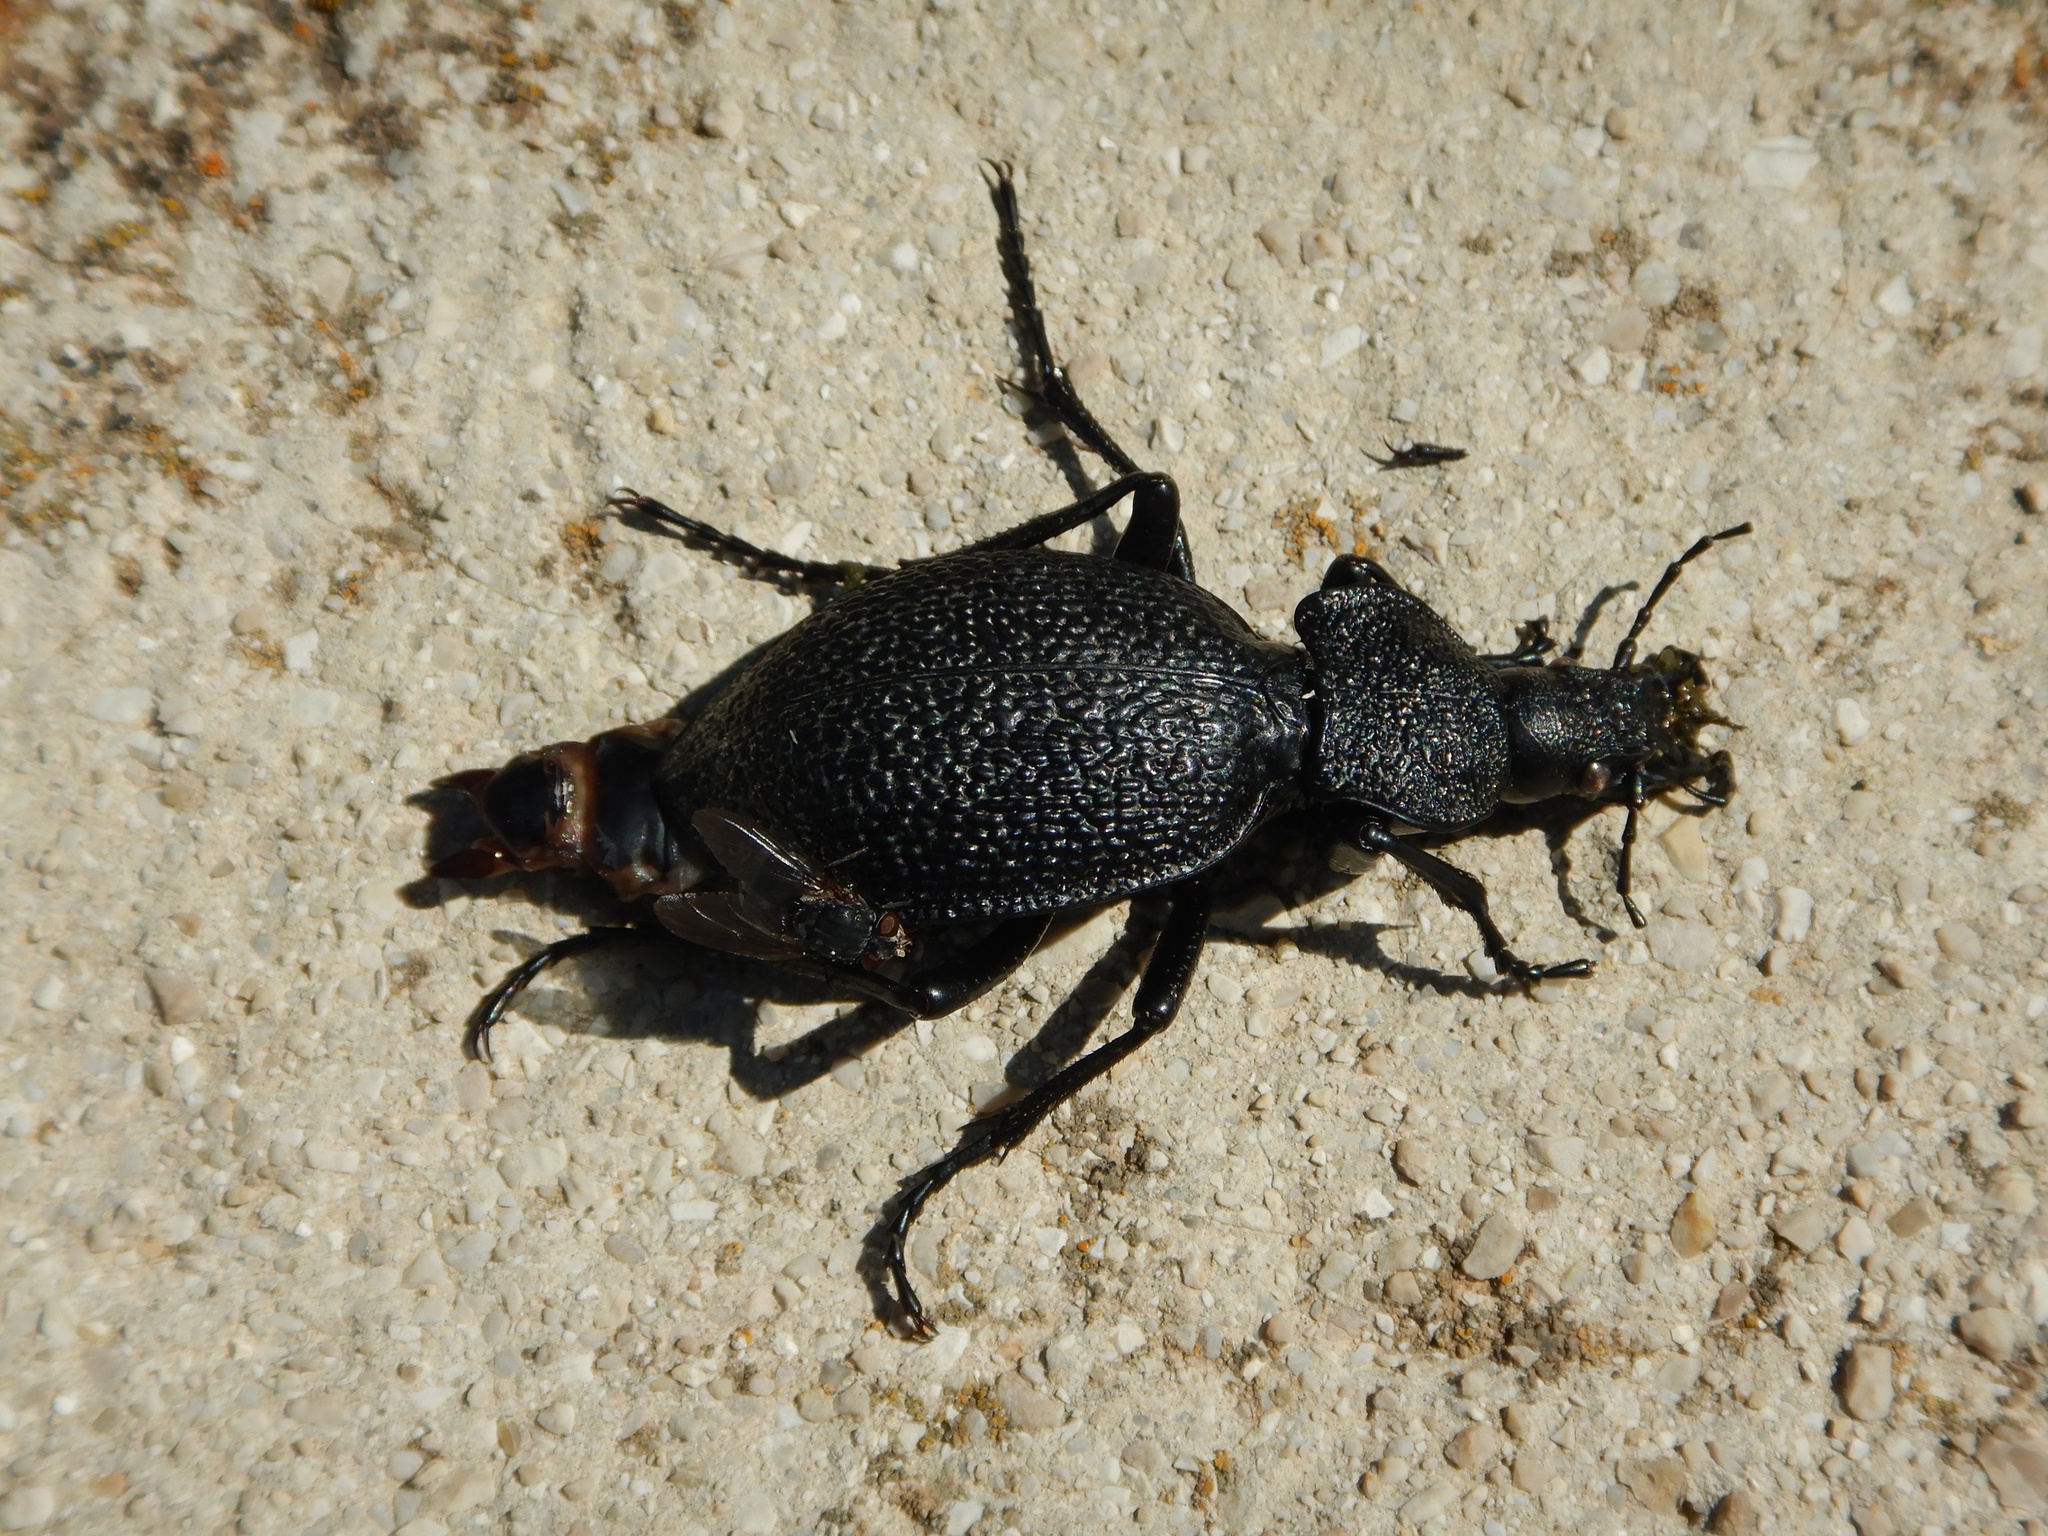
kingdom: Animalia
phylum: Arthropoda
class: Insecta
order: Coleoptera
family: Carabidae
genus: Carabus
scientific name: Carabus gigas
